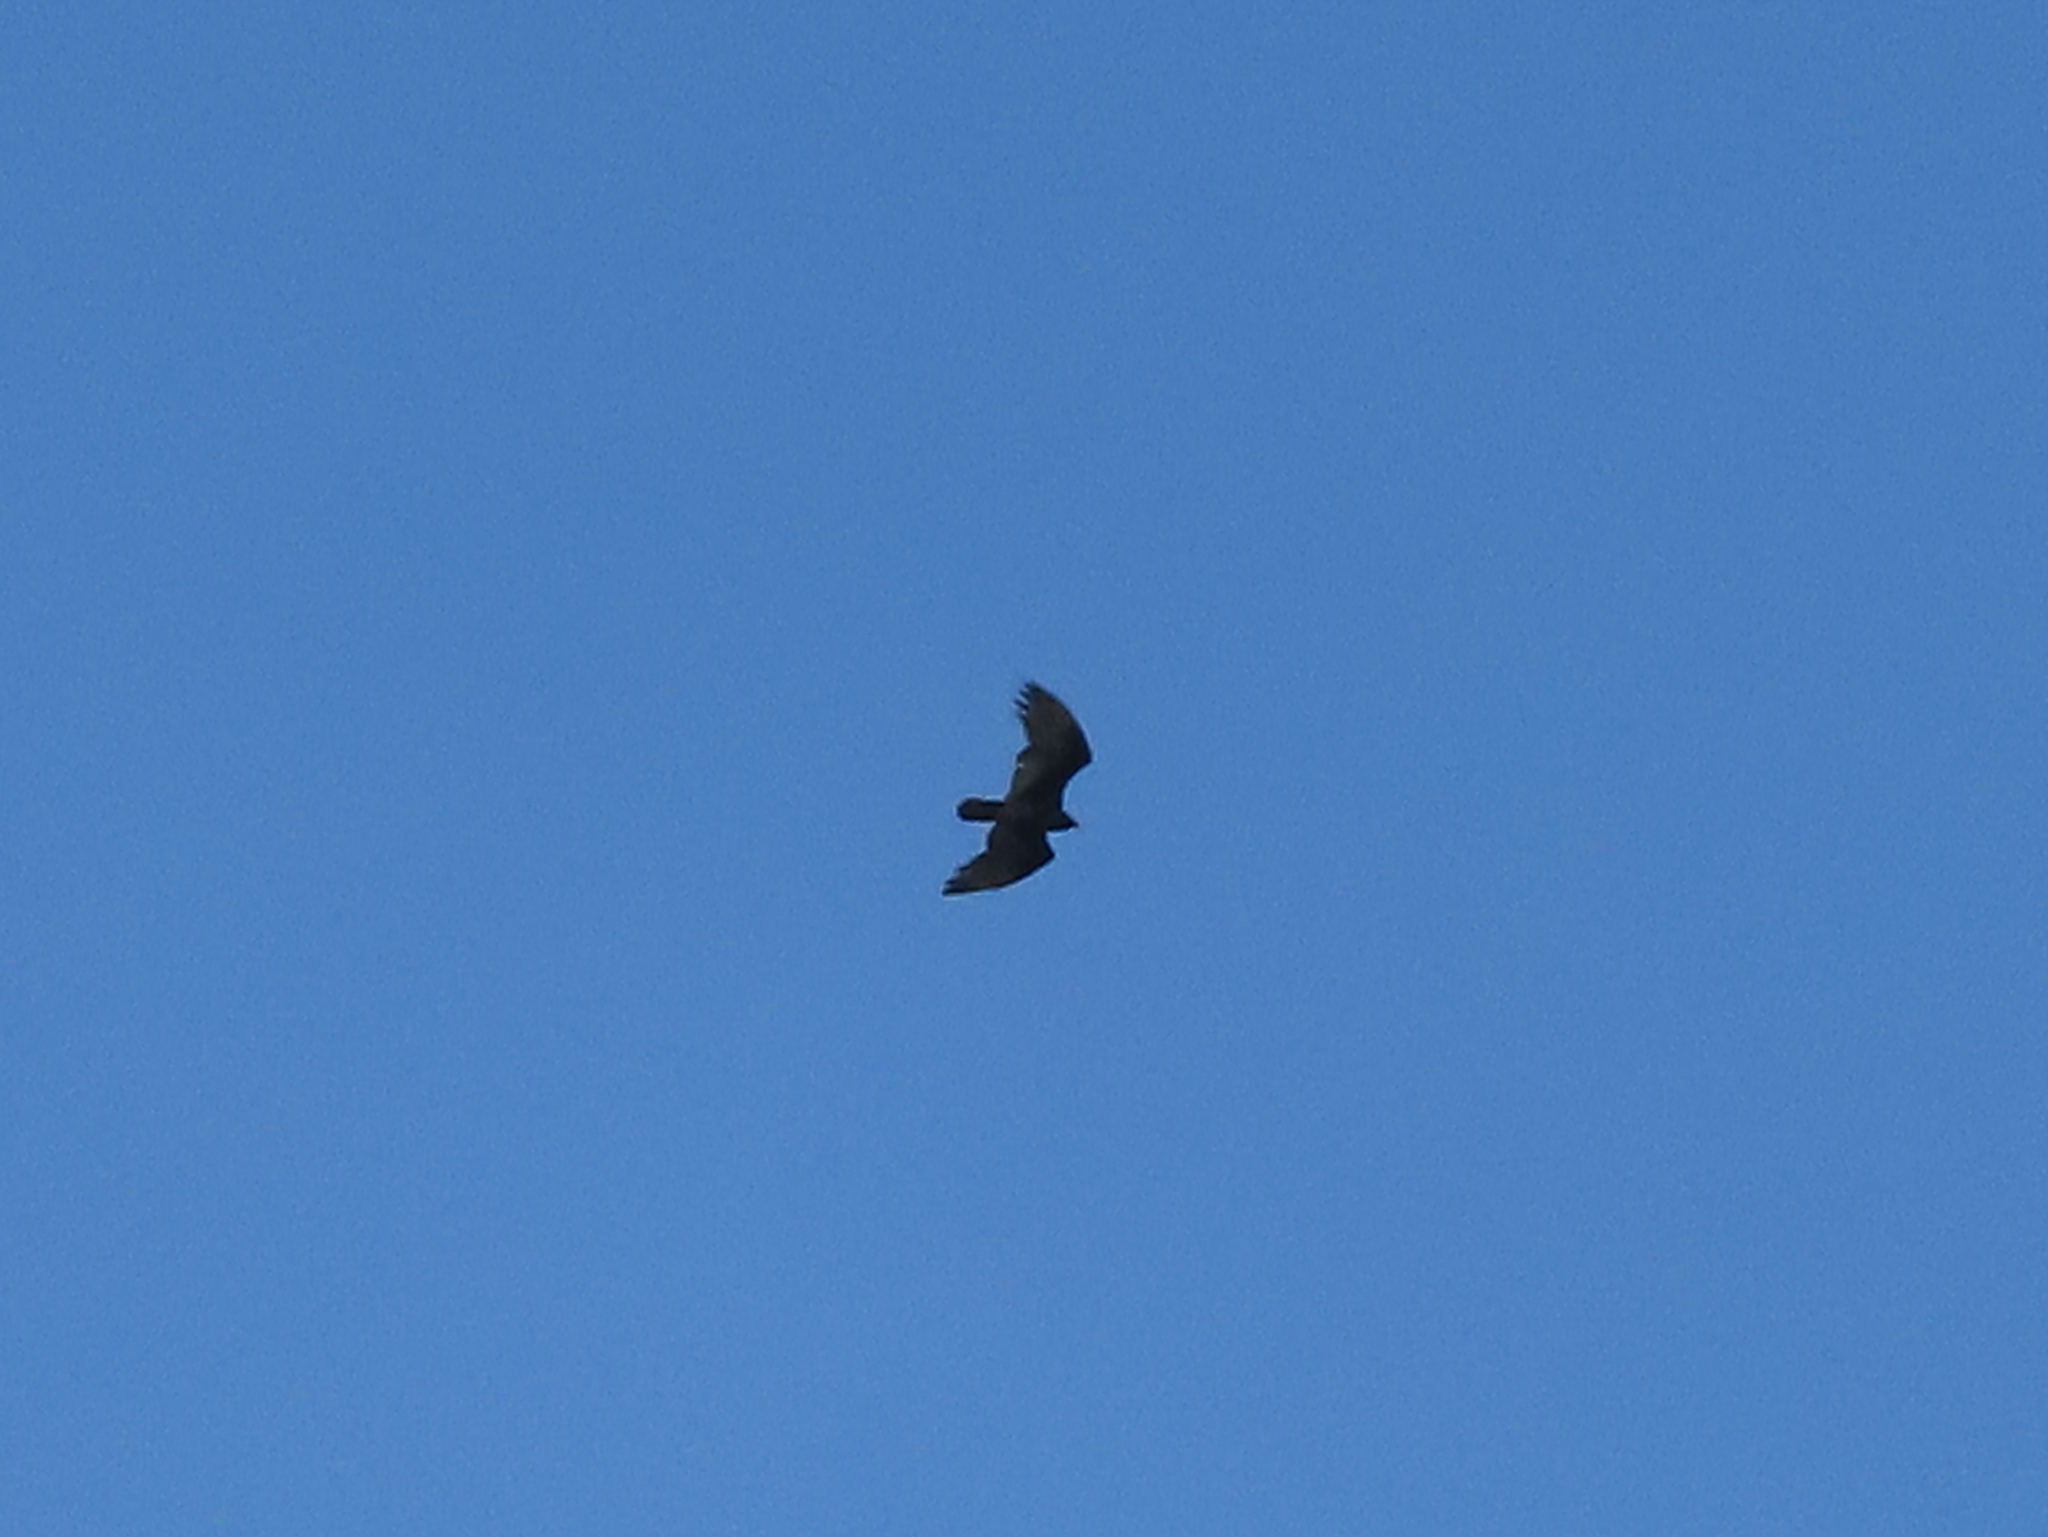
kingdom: Animalia
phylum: Chordata
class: Aves
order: Accipitriformes
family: Cathartidae
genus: Cathartes
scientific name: Cathartes aura
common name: Turkey vulture
